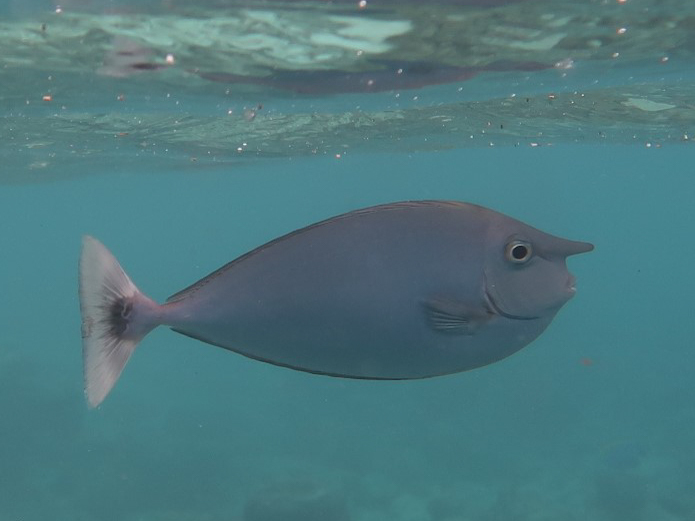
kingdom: Animalia
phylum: Chordata
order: Perciformes
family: Acanthuridae
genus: Naso
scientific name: Naso brevirostris
